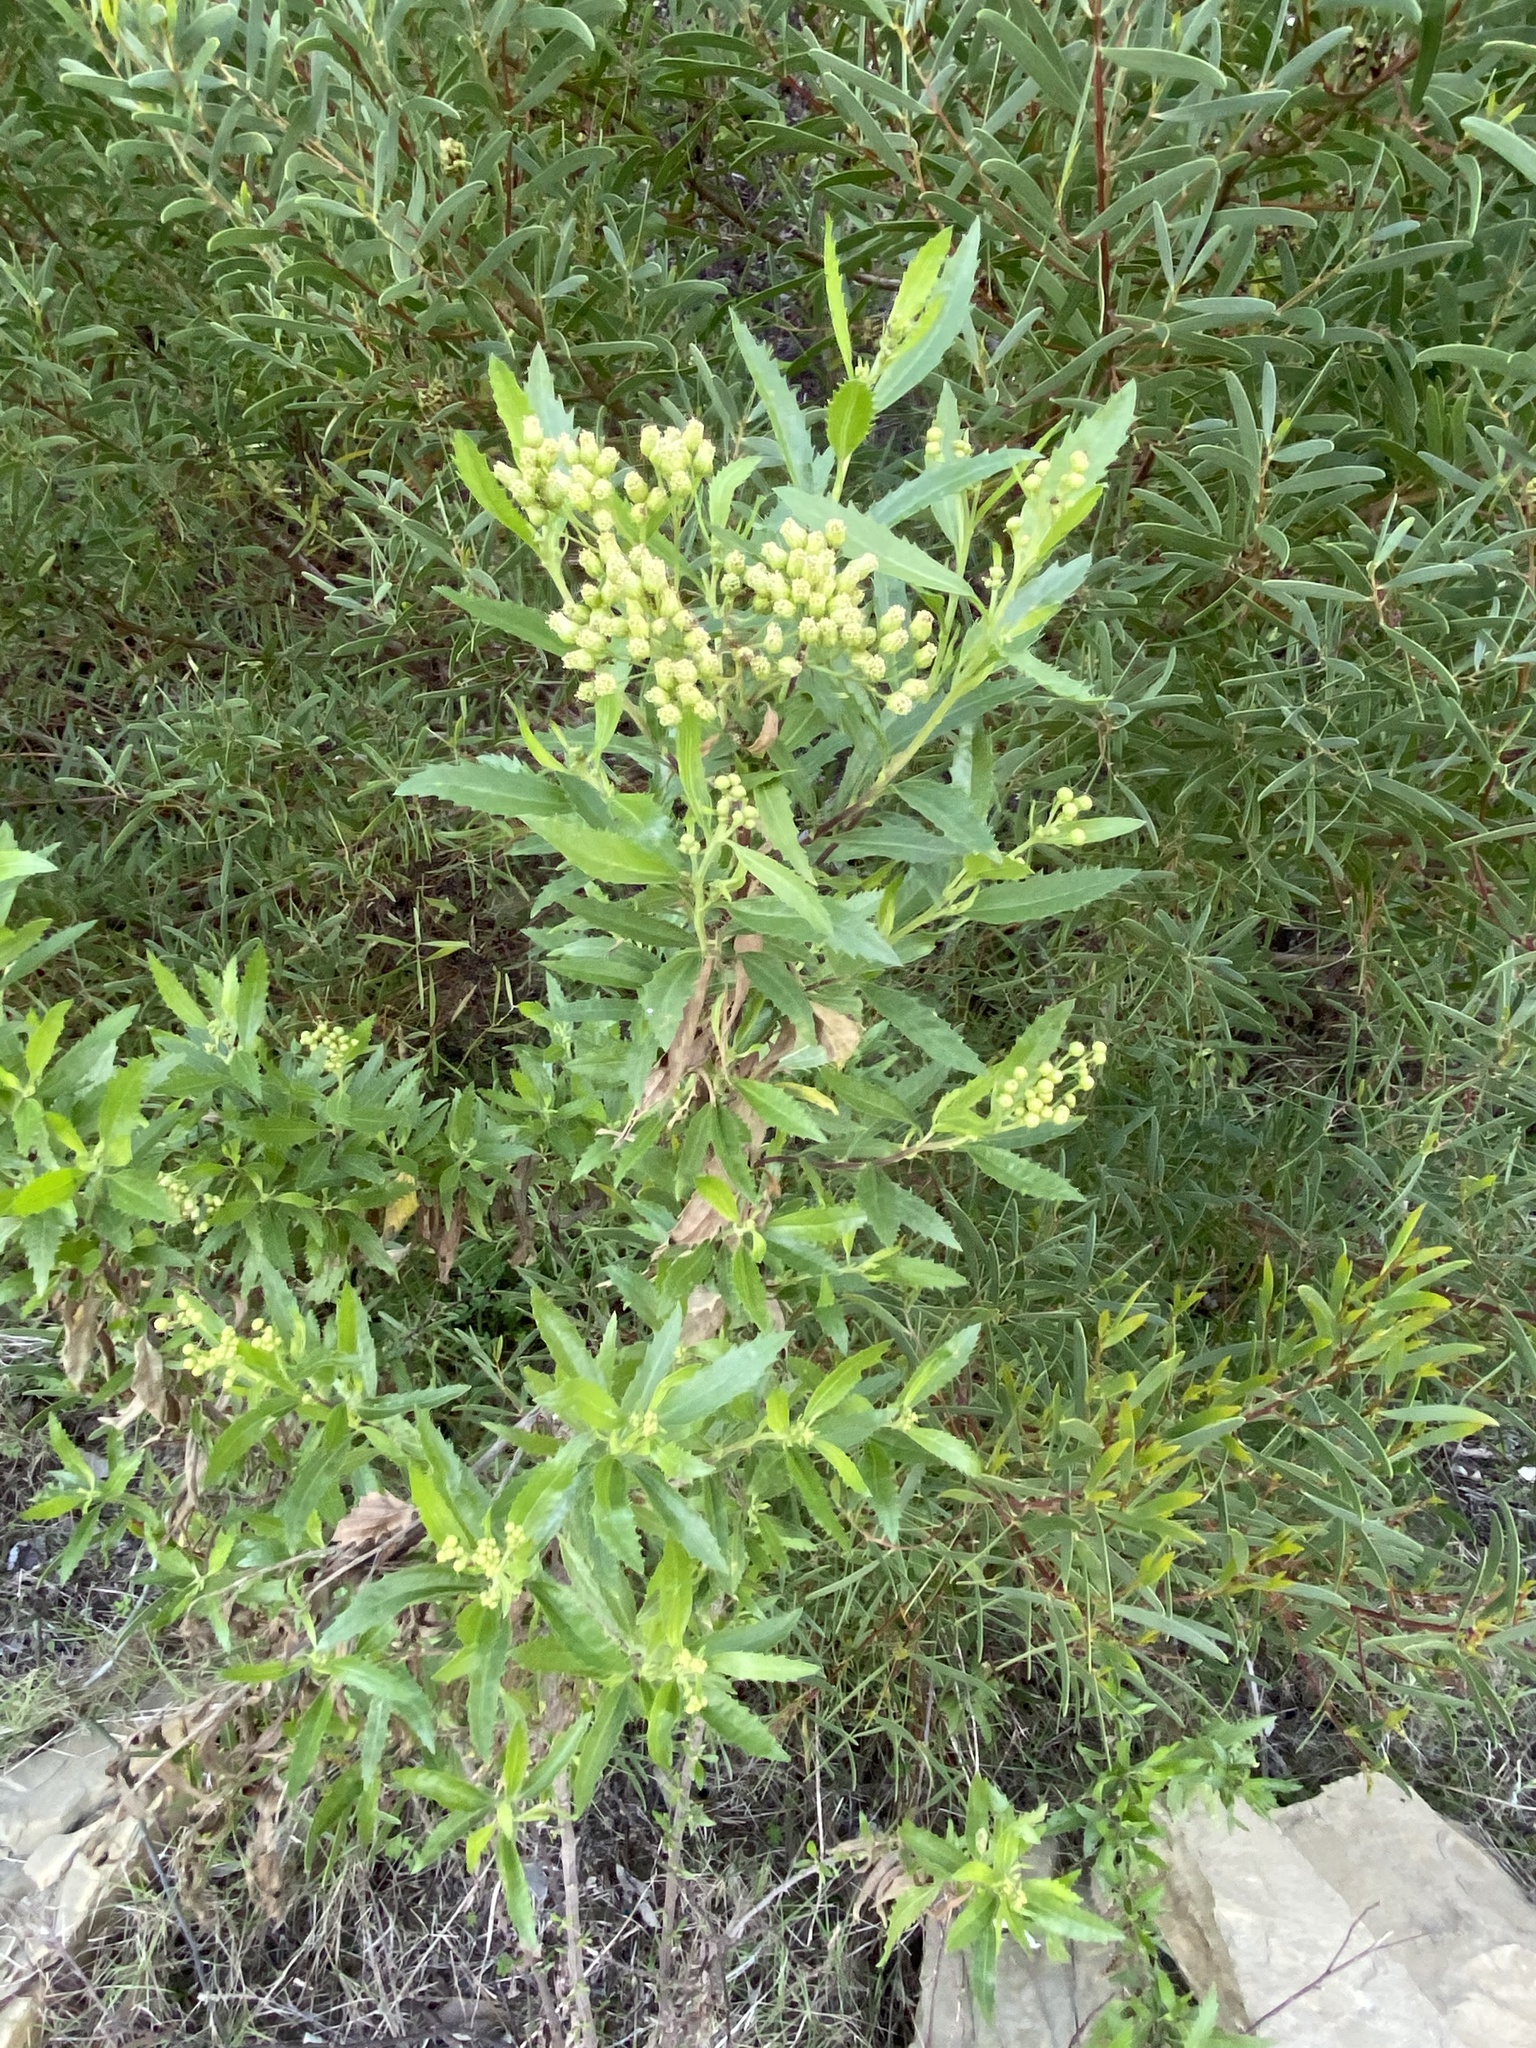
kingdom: Plantae
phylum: Tracheophyta
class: Magnoliopsida
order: Asterales
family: Asteraceae
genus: Nidorella
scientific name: Nidorella ivifolia
